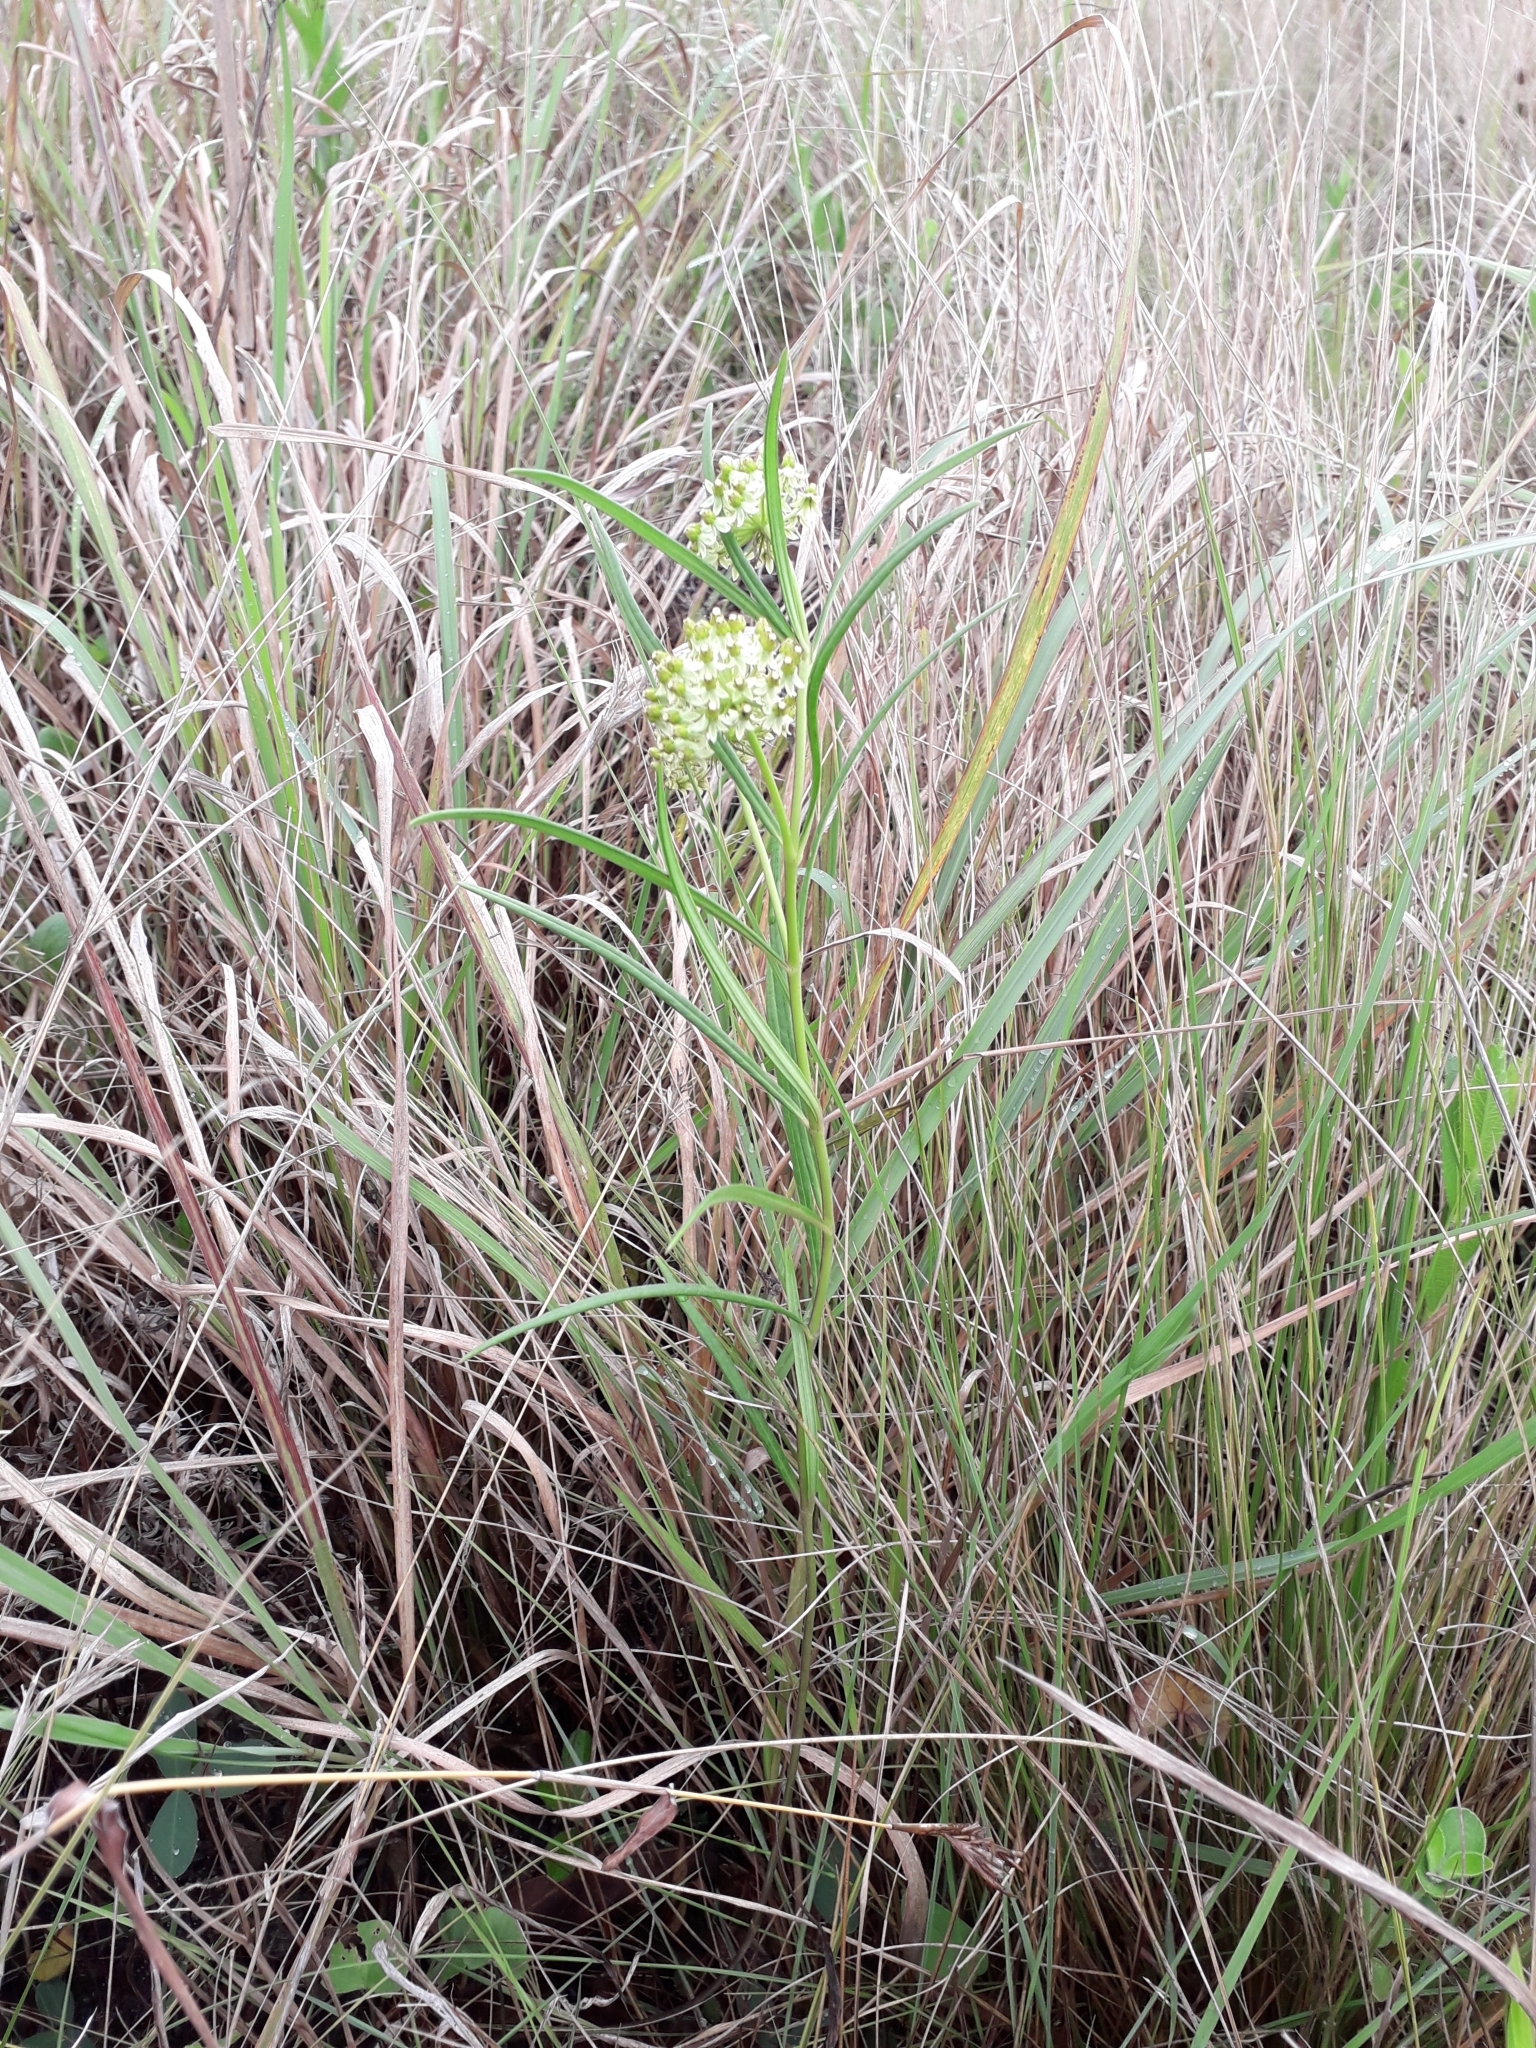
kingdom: Plantae
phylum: Tracheophyta
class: Magnoliopsida
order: Gentianales
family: Apocynaceae
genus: Xysmalobium
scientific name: Xysmalobium involucratum
